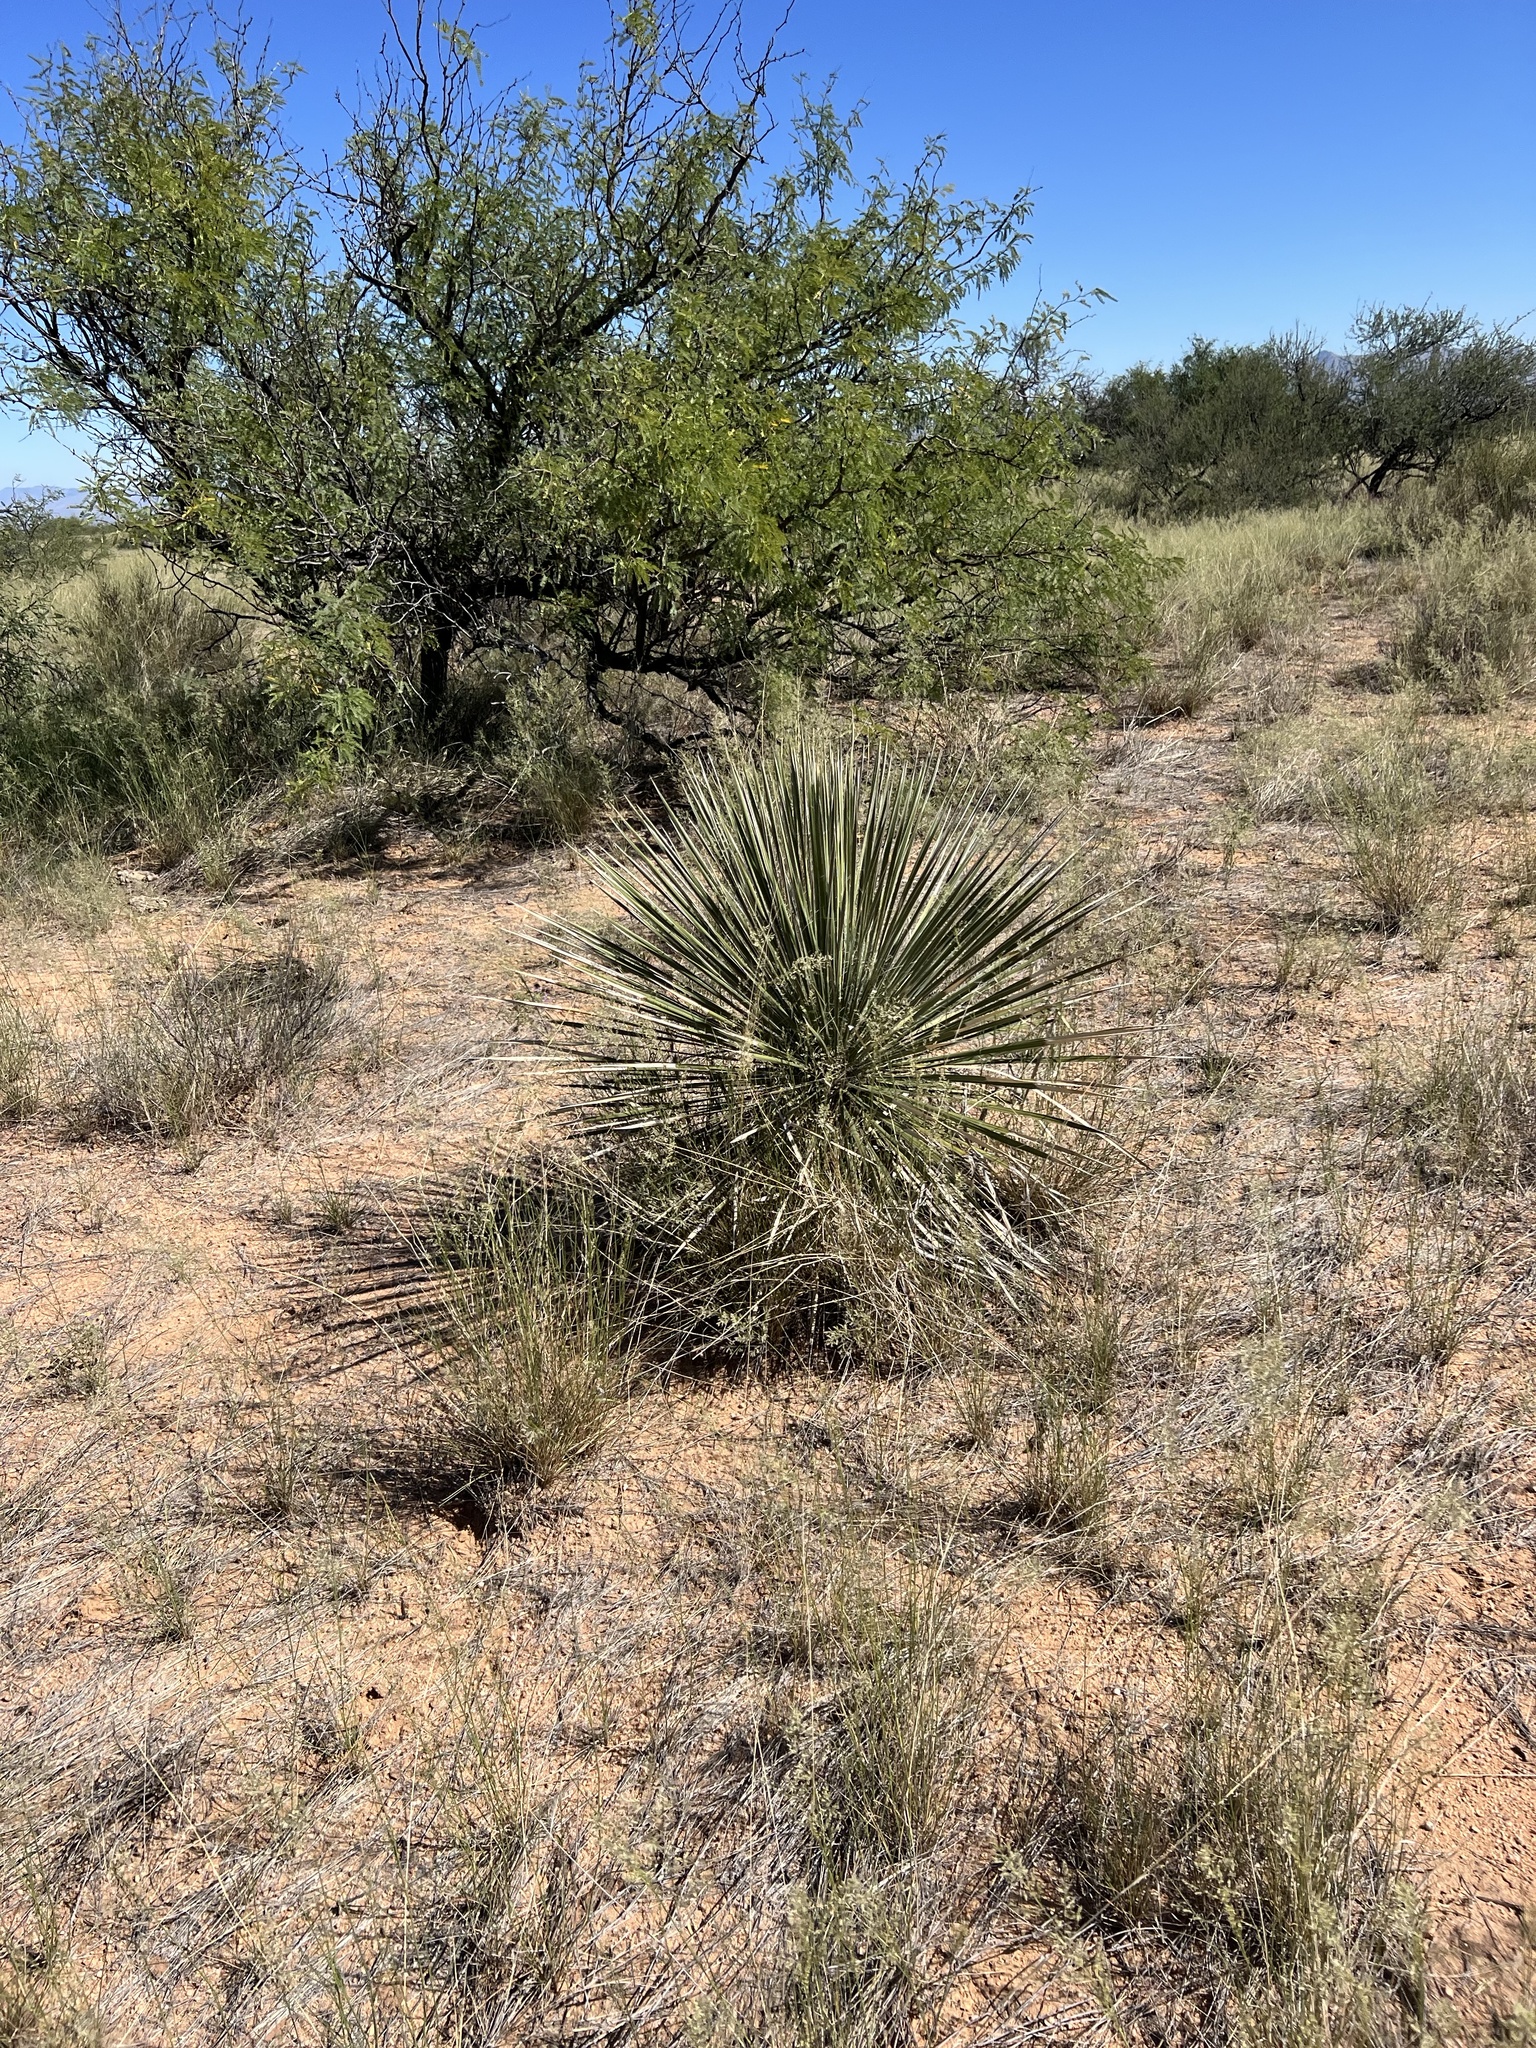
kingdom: Plantae
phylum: Tracheophyta
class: Liliopsida
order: Asparagales
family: Asparagaceae
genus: Yucca
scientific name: Yucca elata
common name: Palmella
